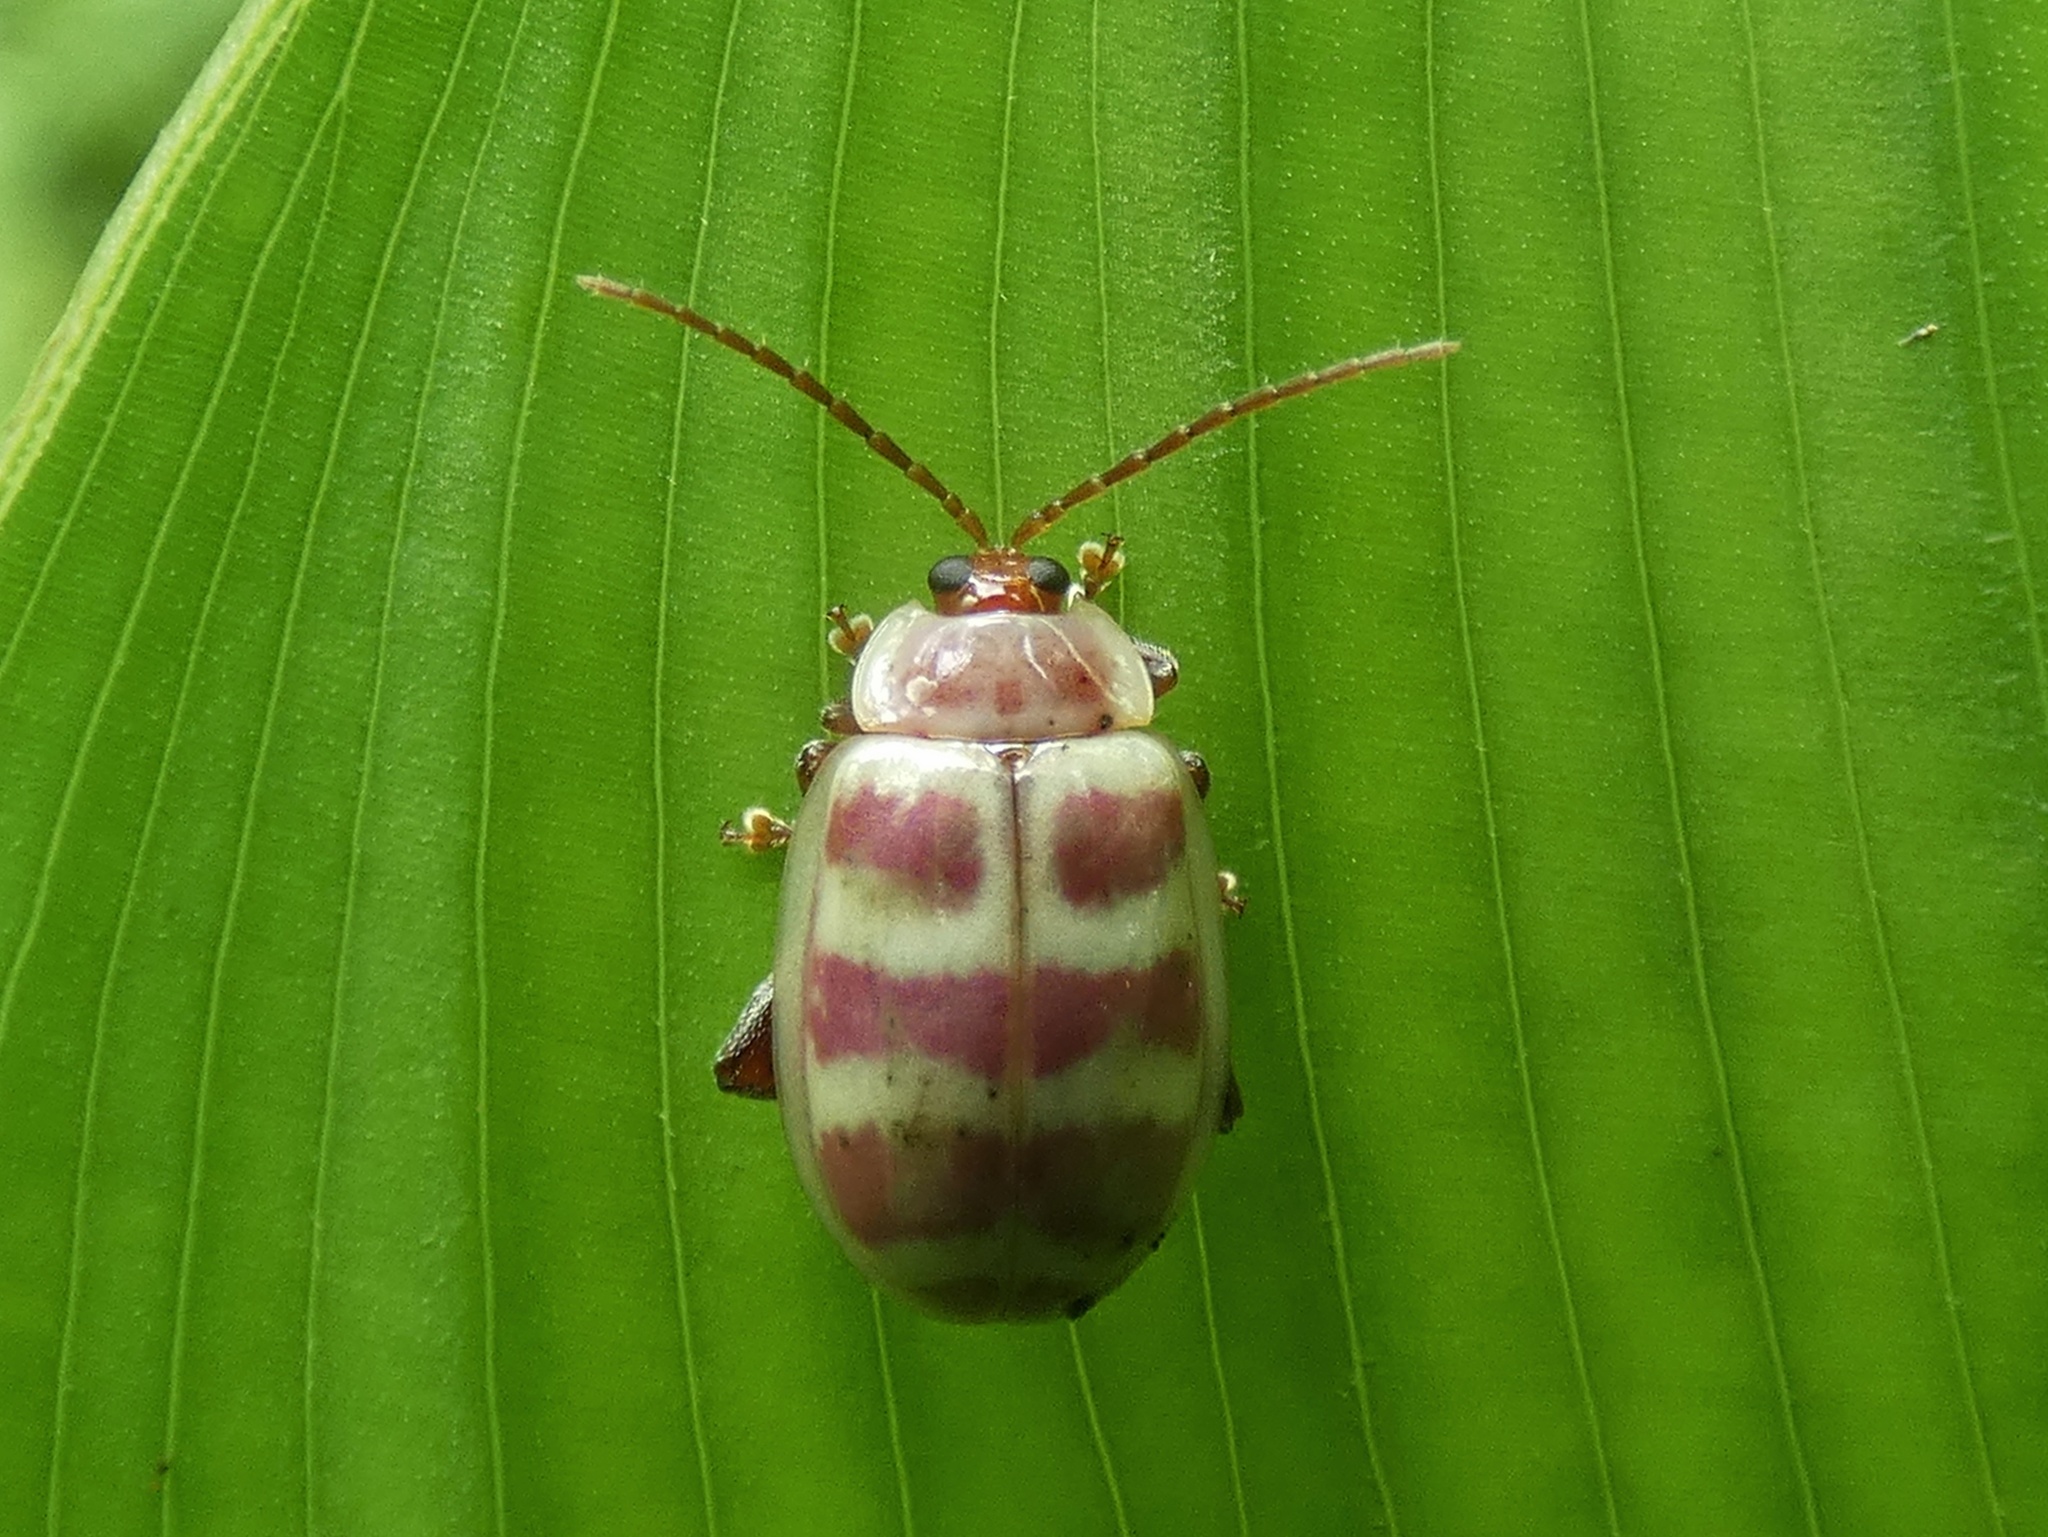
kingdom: Animalia
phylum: Arthropoda
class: Insecta
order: Coleoptera
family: Chrysomelidae
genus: Asphaera
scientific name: Asphaera
